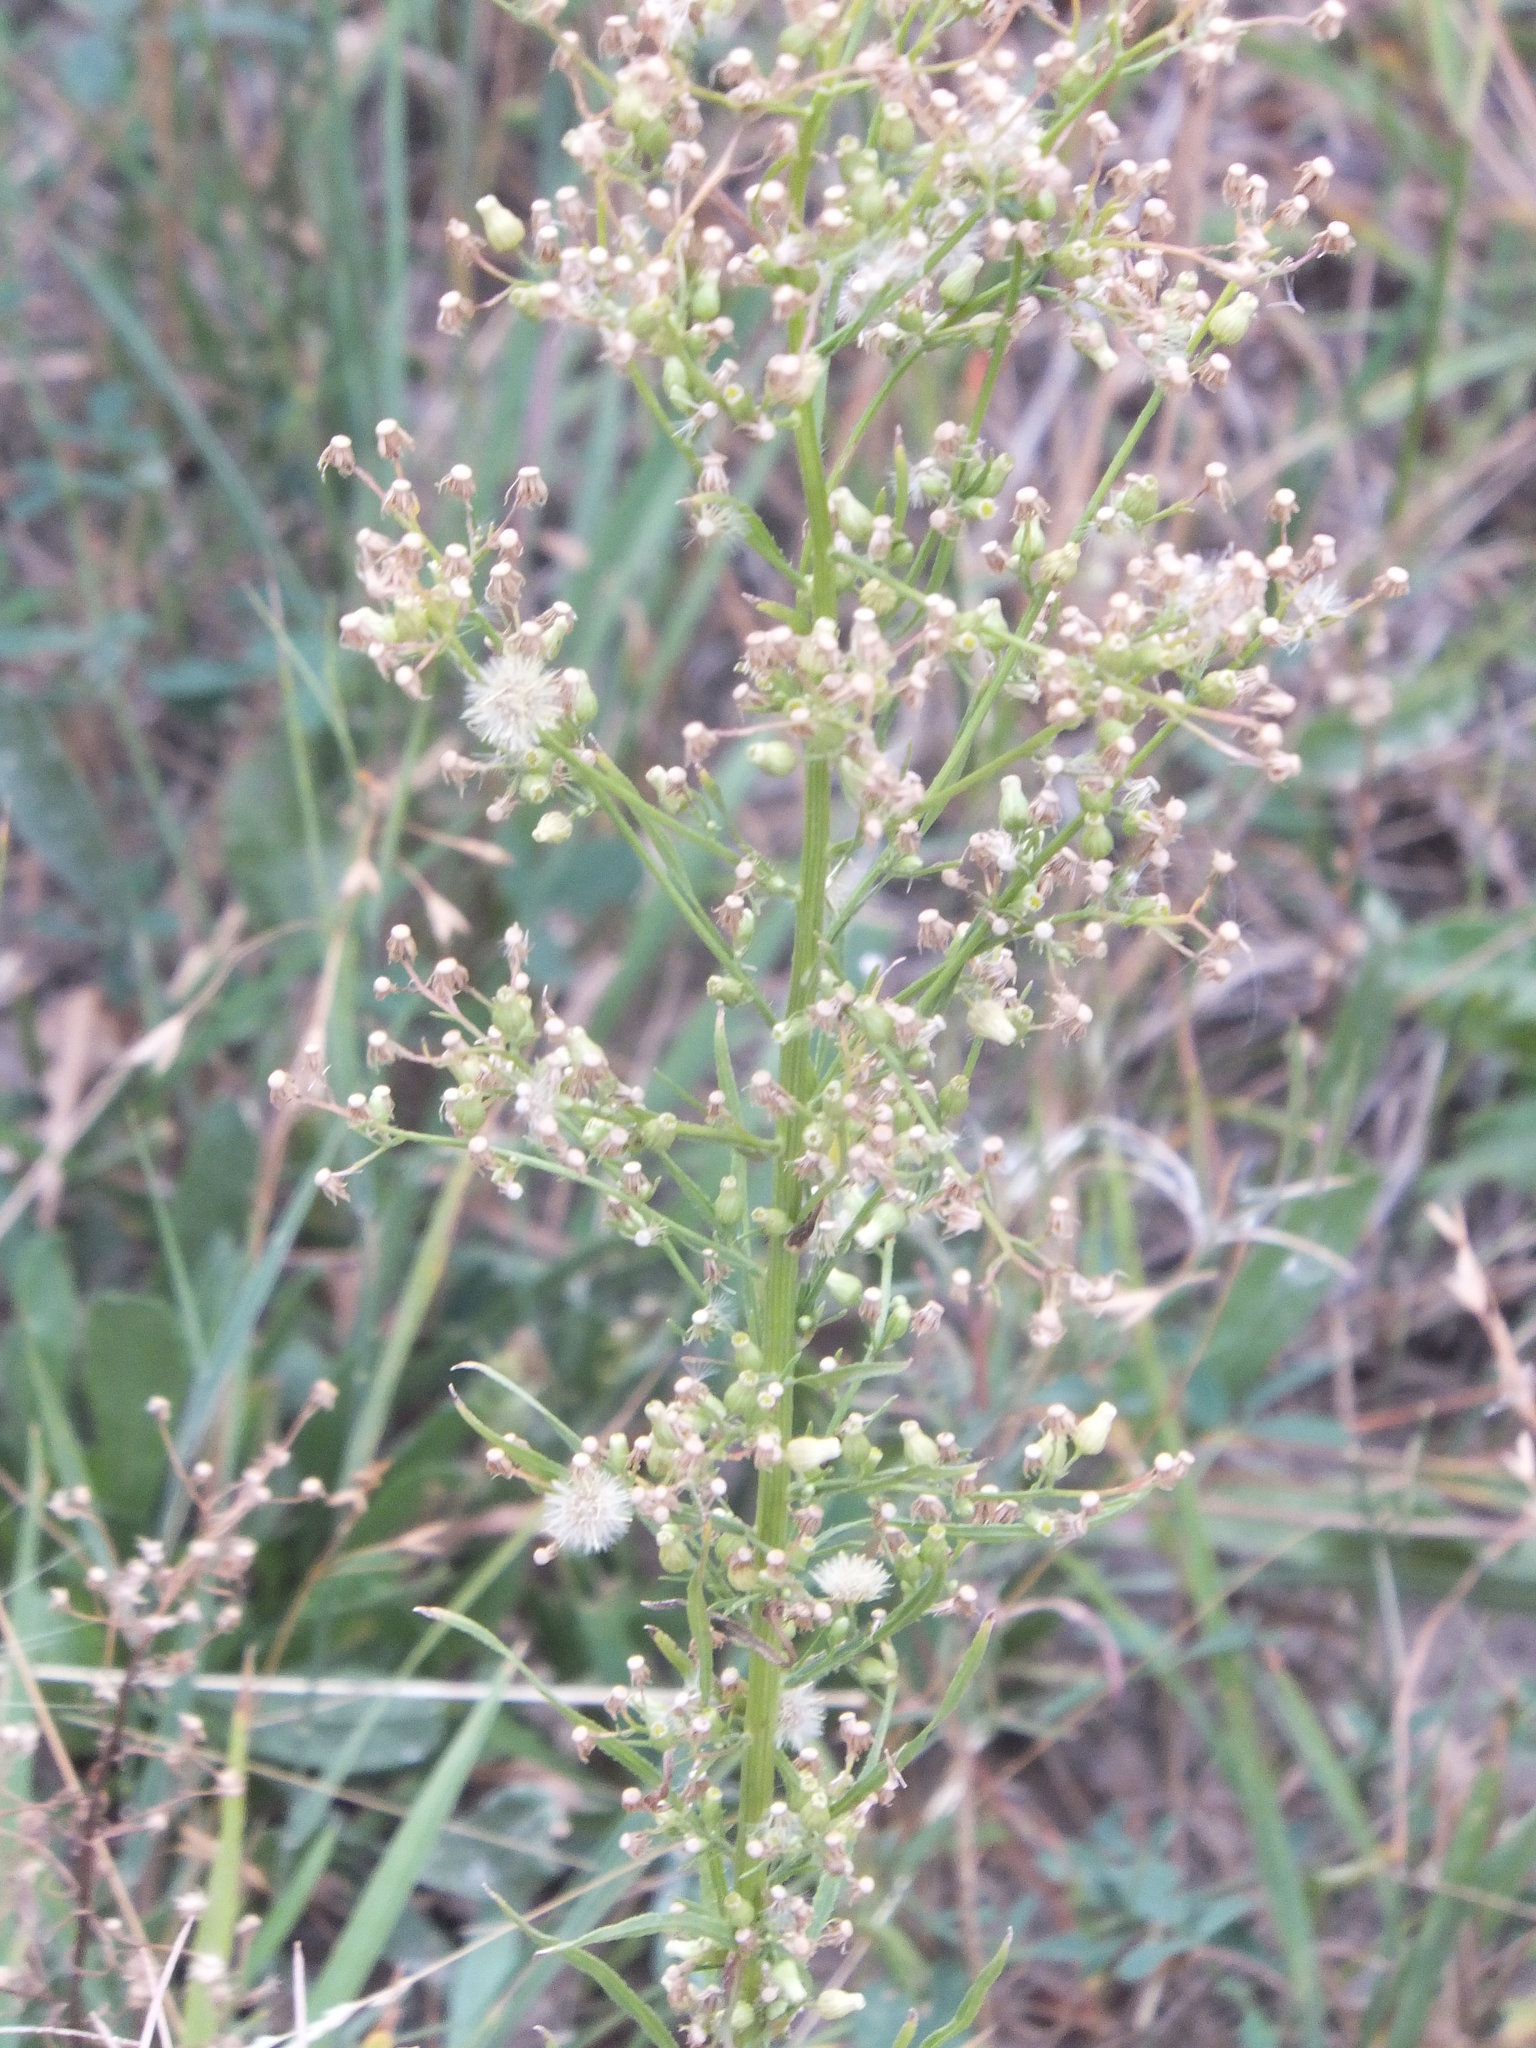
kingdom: Plantae
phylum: Tracheophyta
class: Magnoliopsida
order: Asterales
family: Asteraceae
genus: Erigeron
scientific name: Erigeron canadensis
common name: Canadian fleabane
